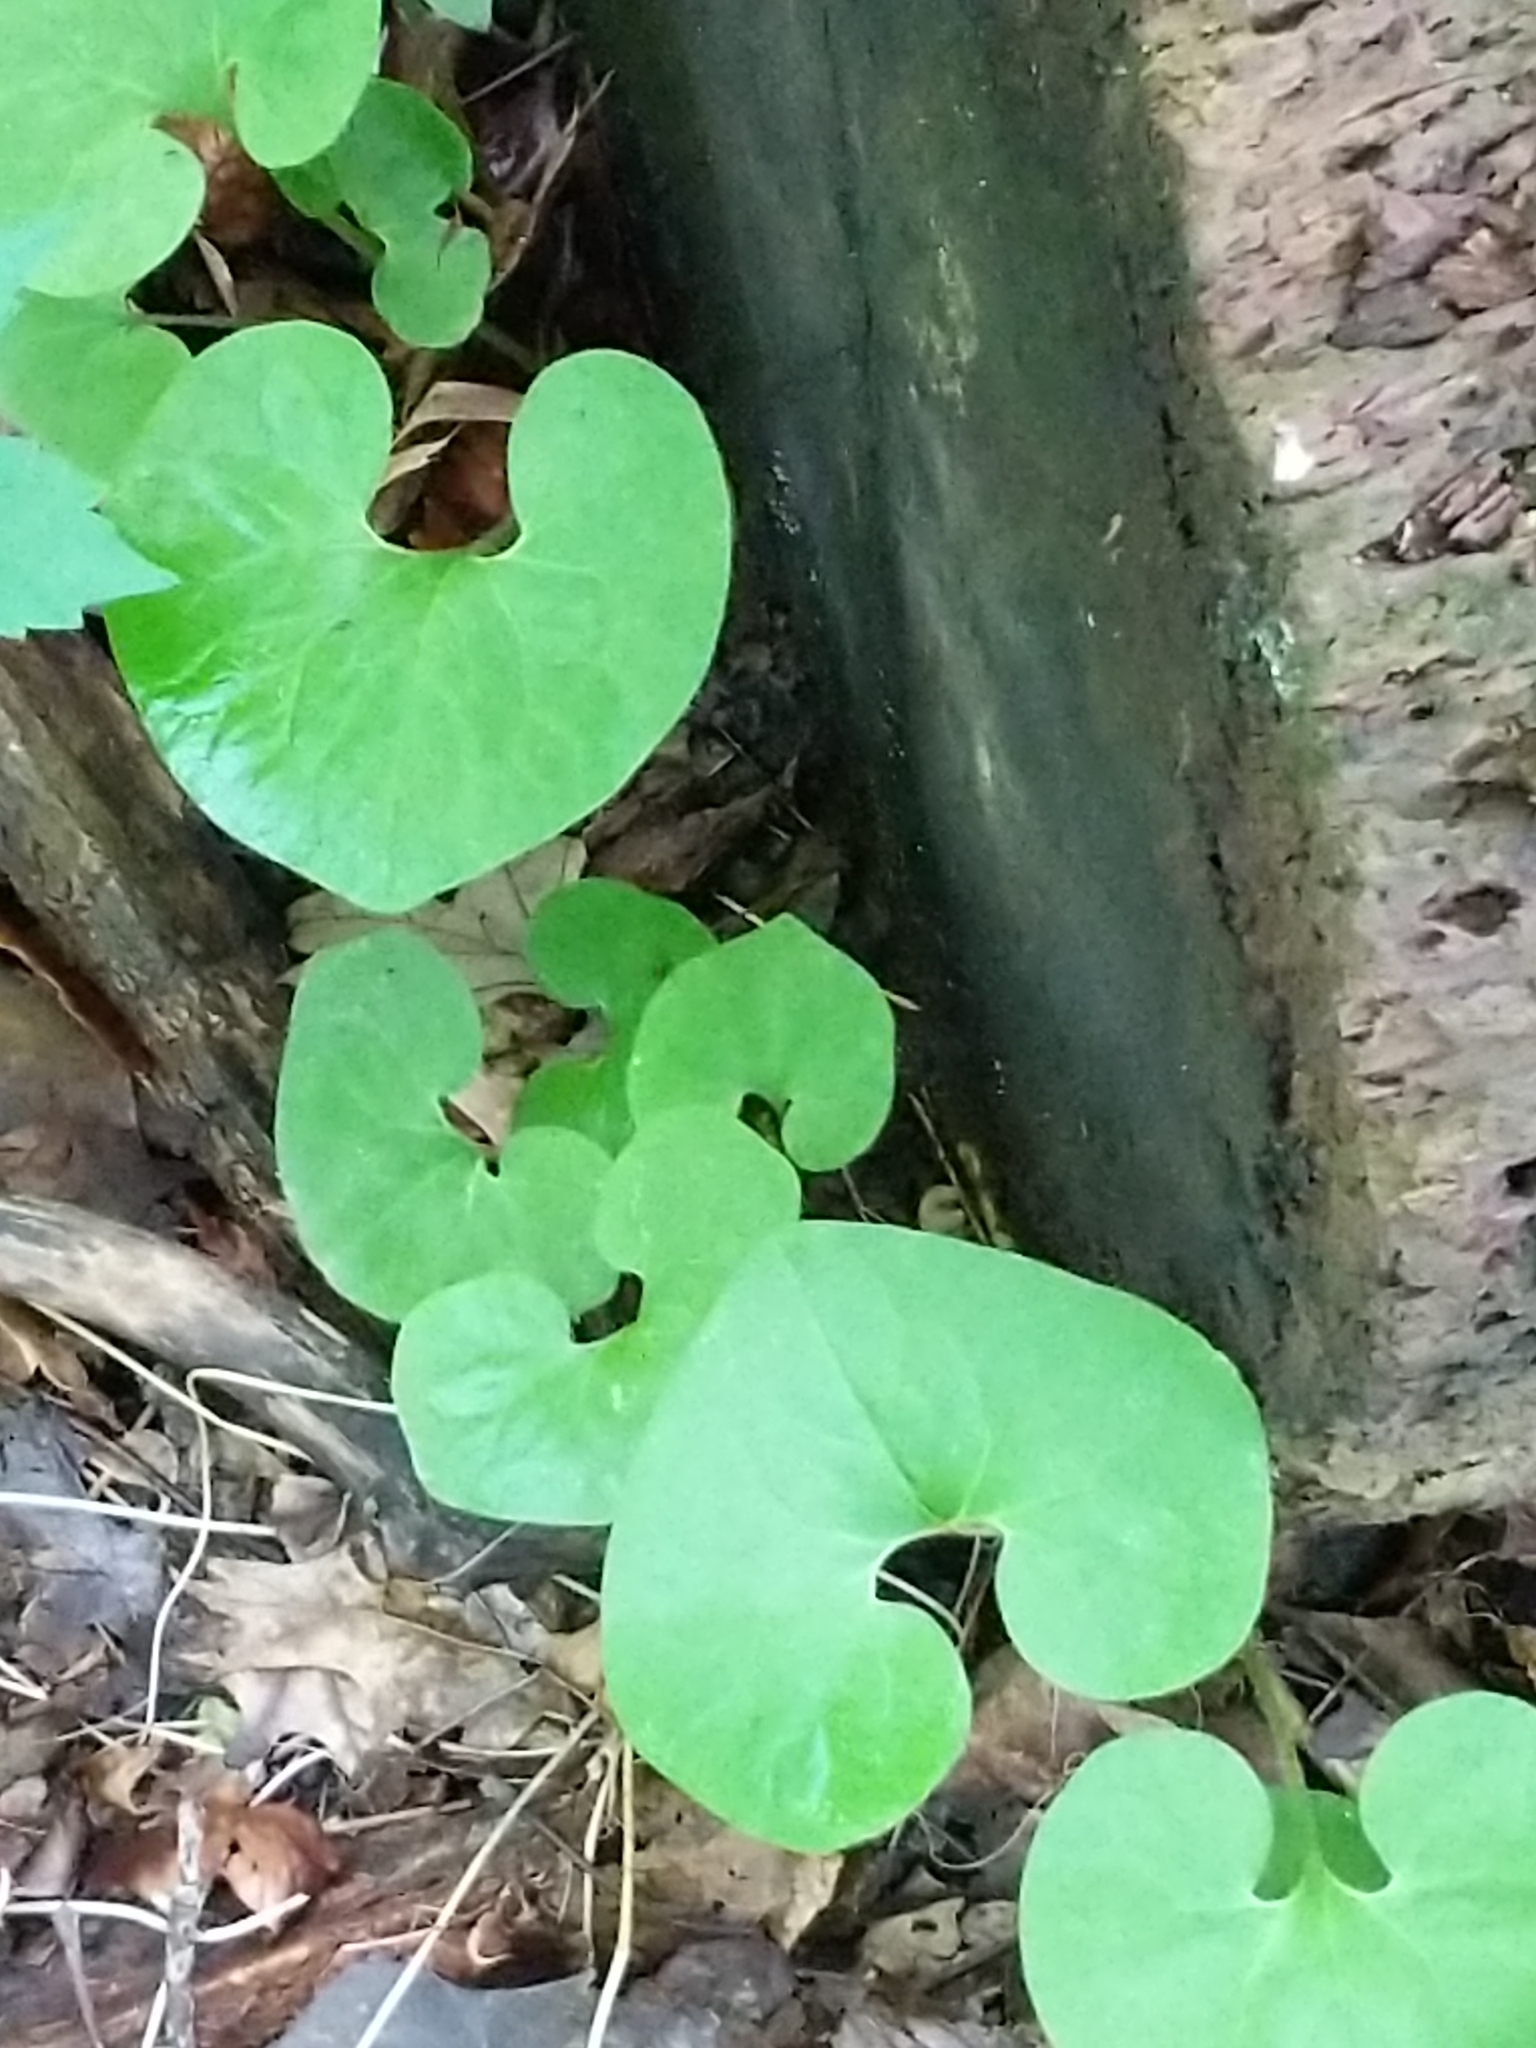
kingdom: Plantae
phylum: Tracheophyta
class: Magnoliopsida
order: Piperales
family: Aristolochiaceae
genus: Asarum
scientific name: Asarum canadense
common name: Wild ginger
